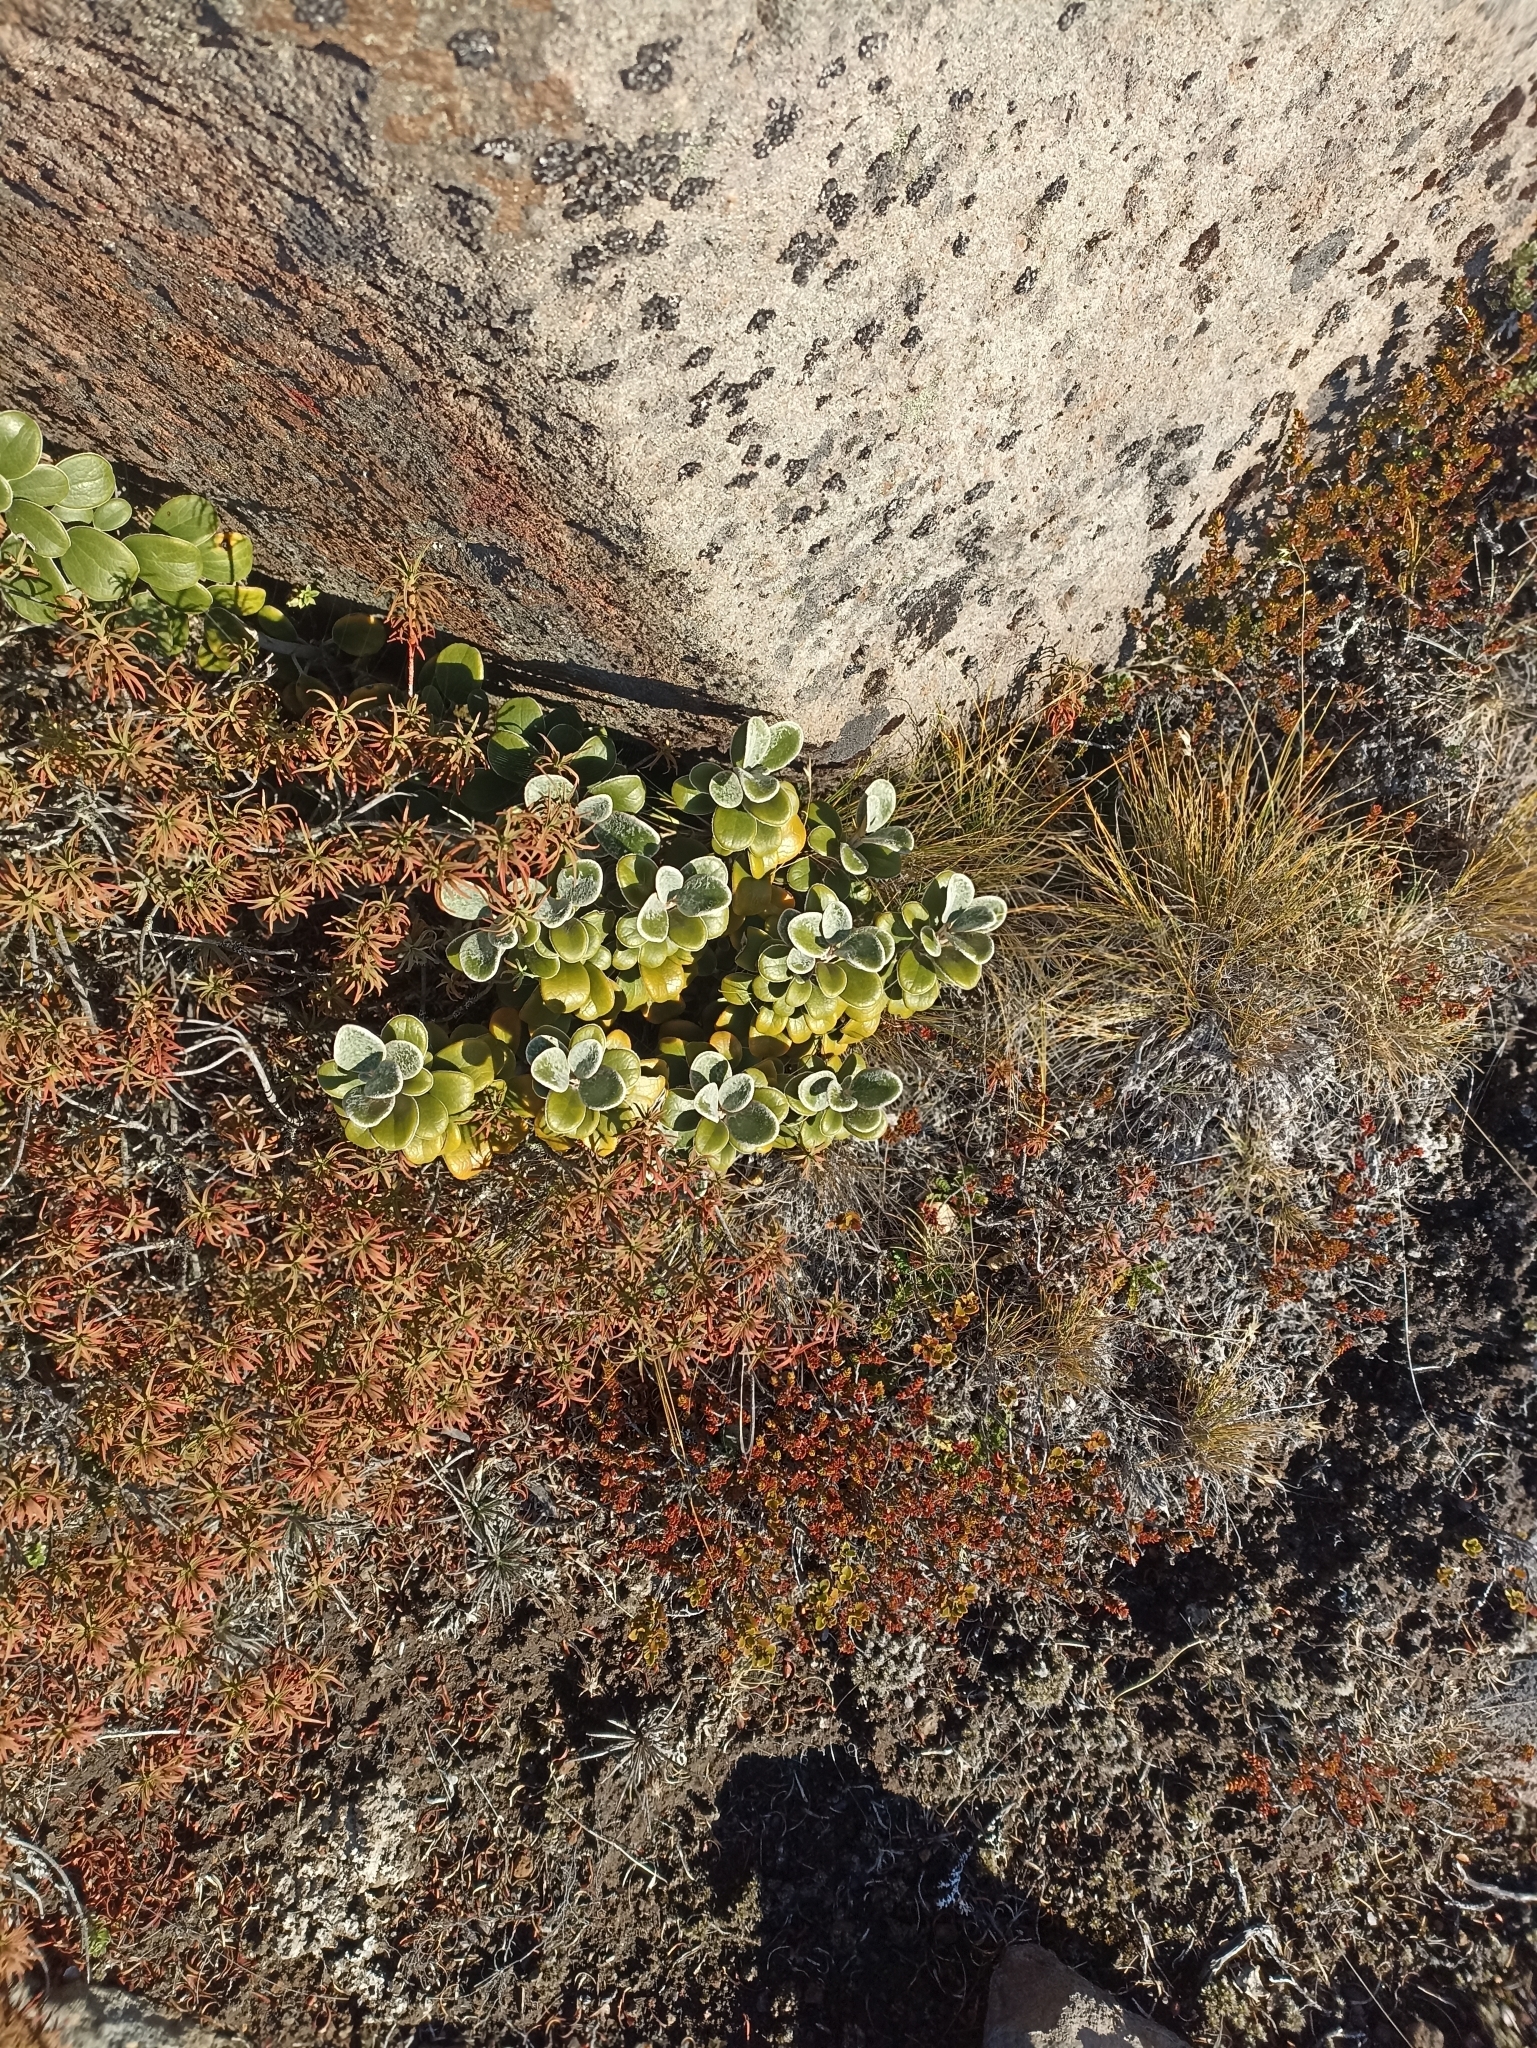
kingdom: Plantae
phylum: Tracheophyta
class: Magnoliopsida
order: Asterales
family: Asteraceae
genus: Brachyglottis
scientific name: Brachyglottis bidwillii
